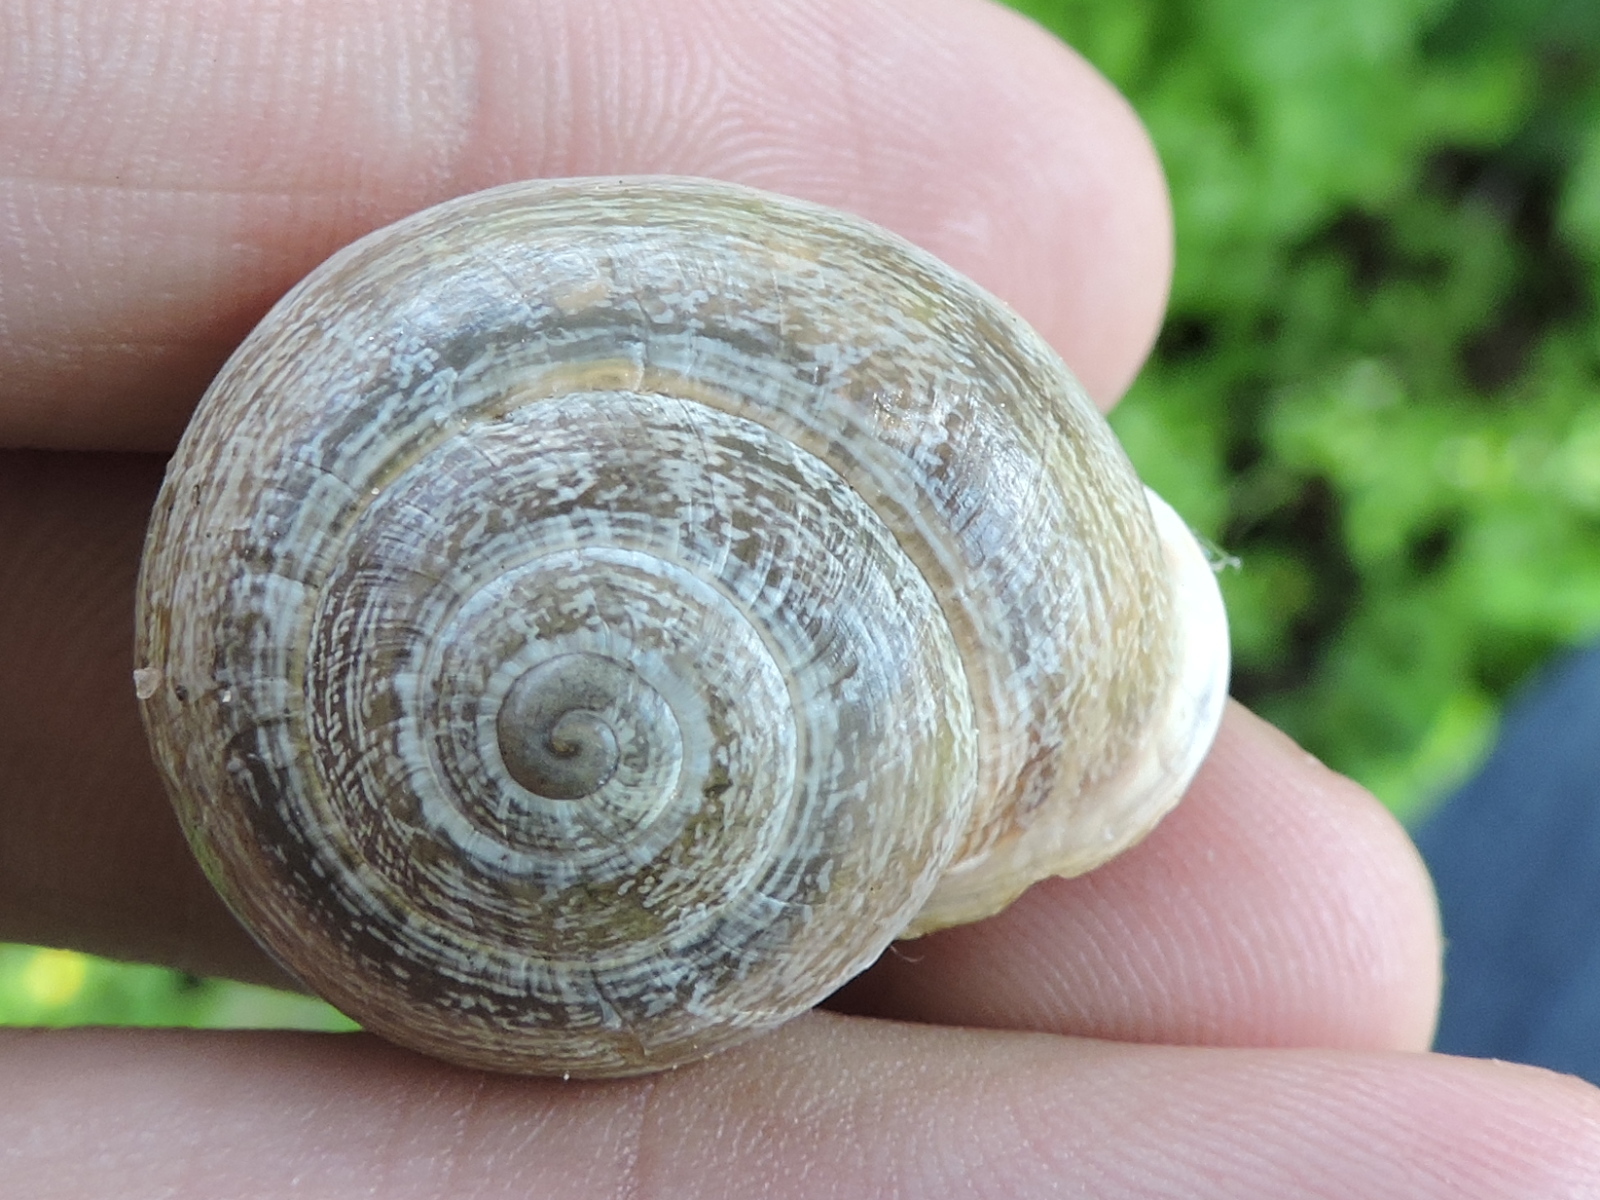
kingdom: Animalia
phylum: Mollusca
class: Gastropoda
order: Stylommatophora
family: Helicidae
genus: Otala
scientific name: Otala lactea
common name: Milk snail
